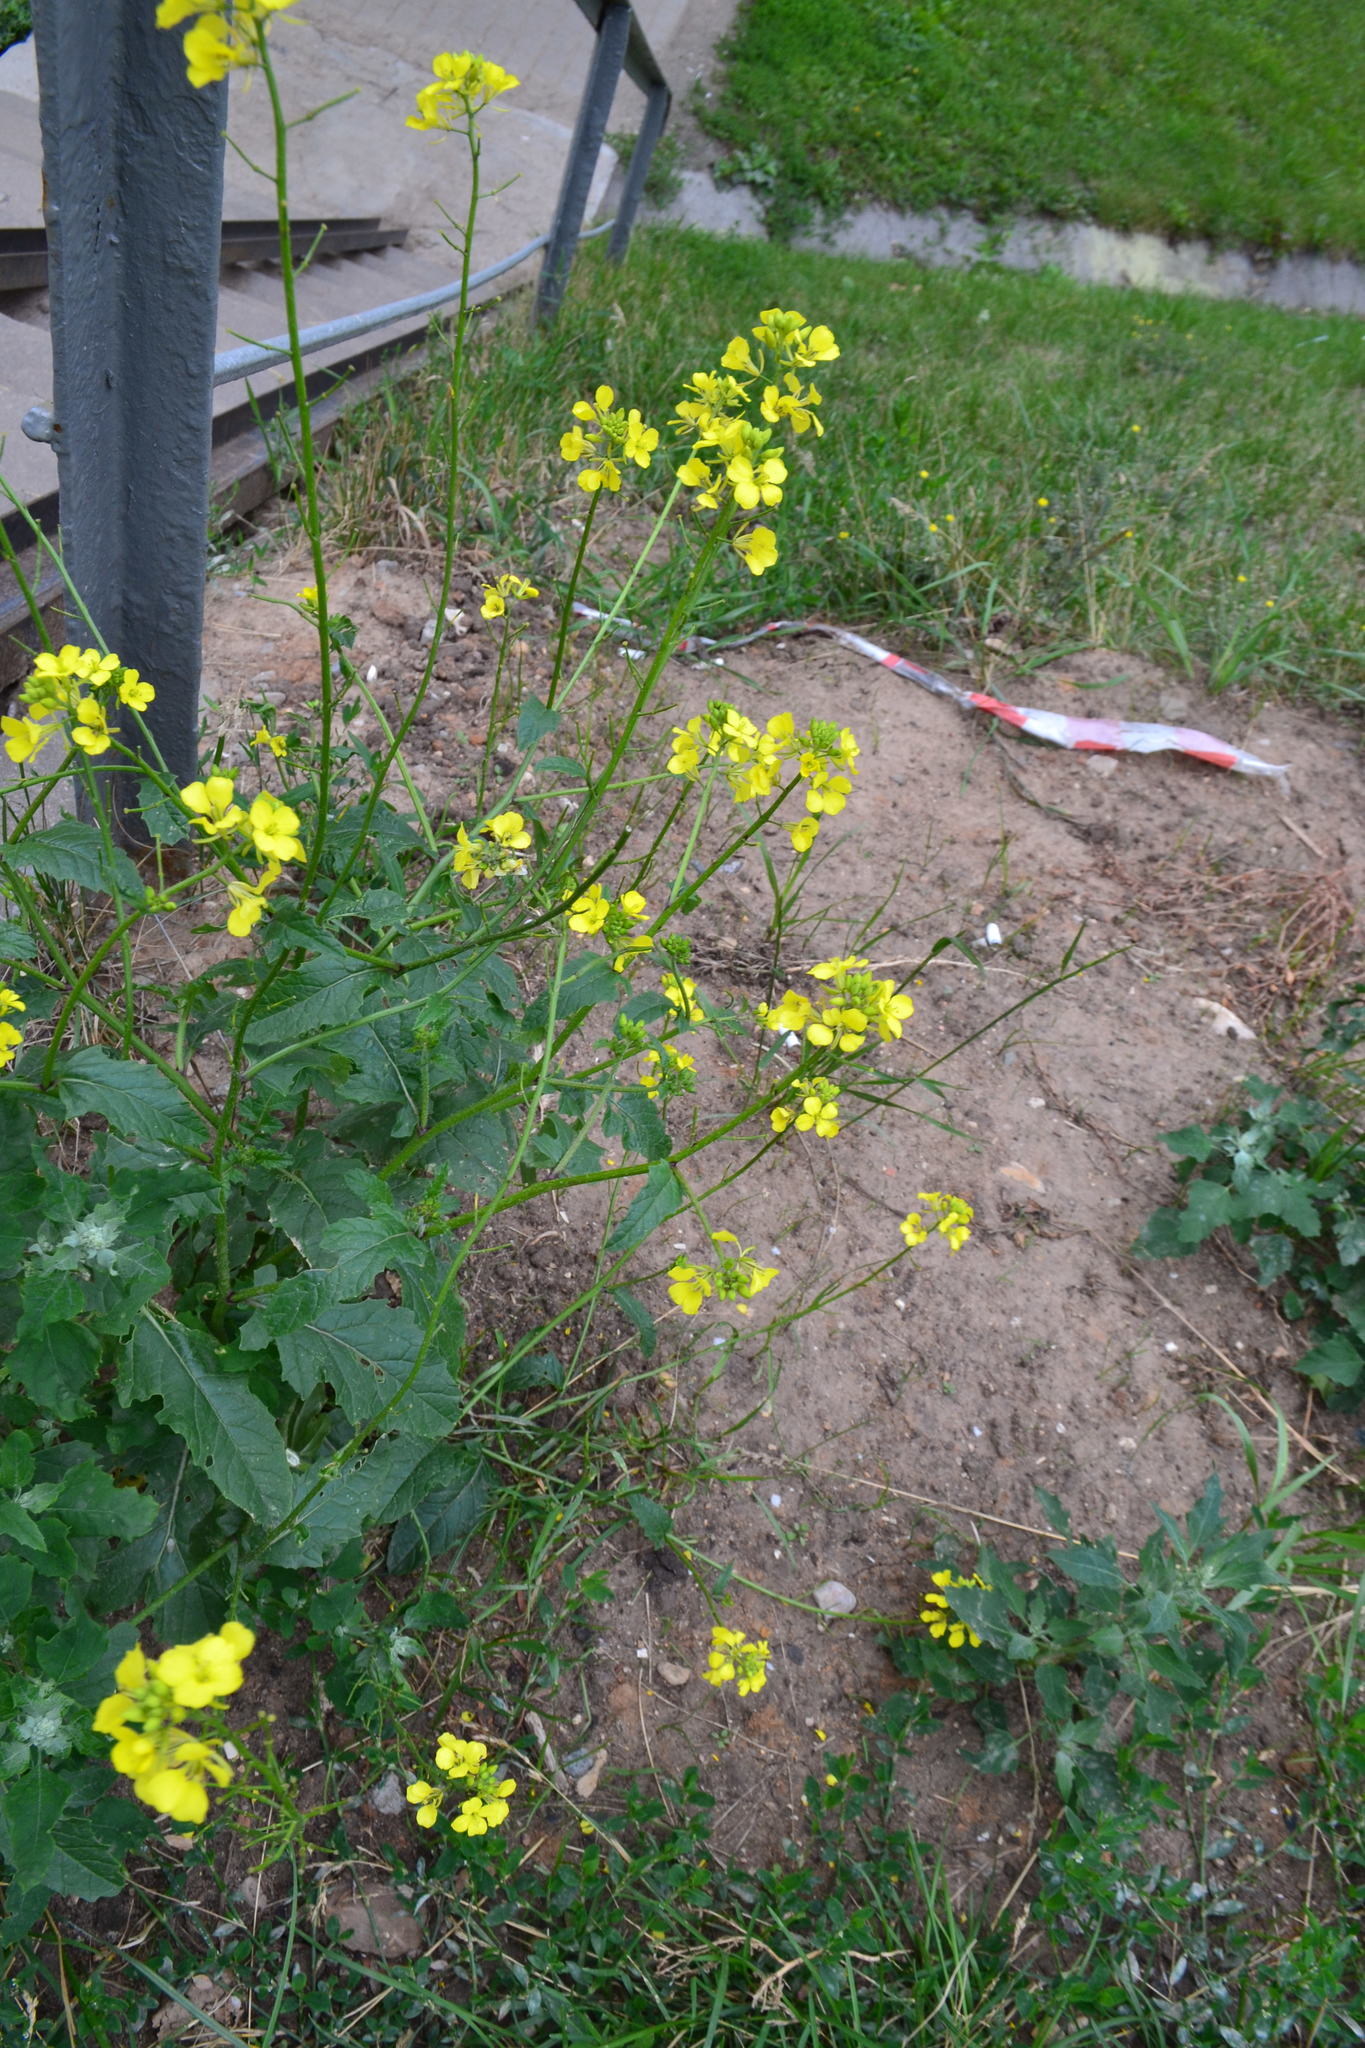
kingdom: Plantae
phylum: Tracheophyta
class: Magnoliopsida
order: Brassicales
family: Brassicaceae
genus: Sinapis
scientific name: Sinapis arvensis
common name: Charlock
